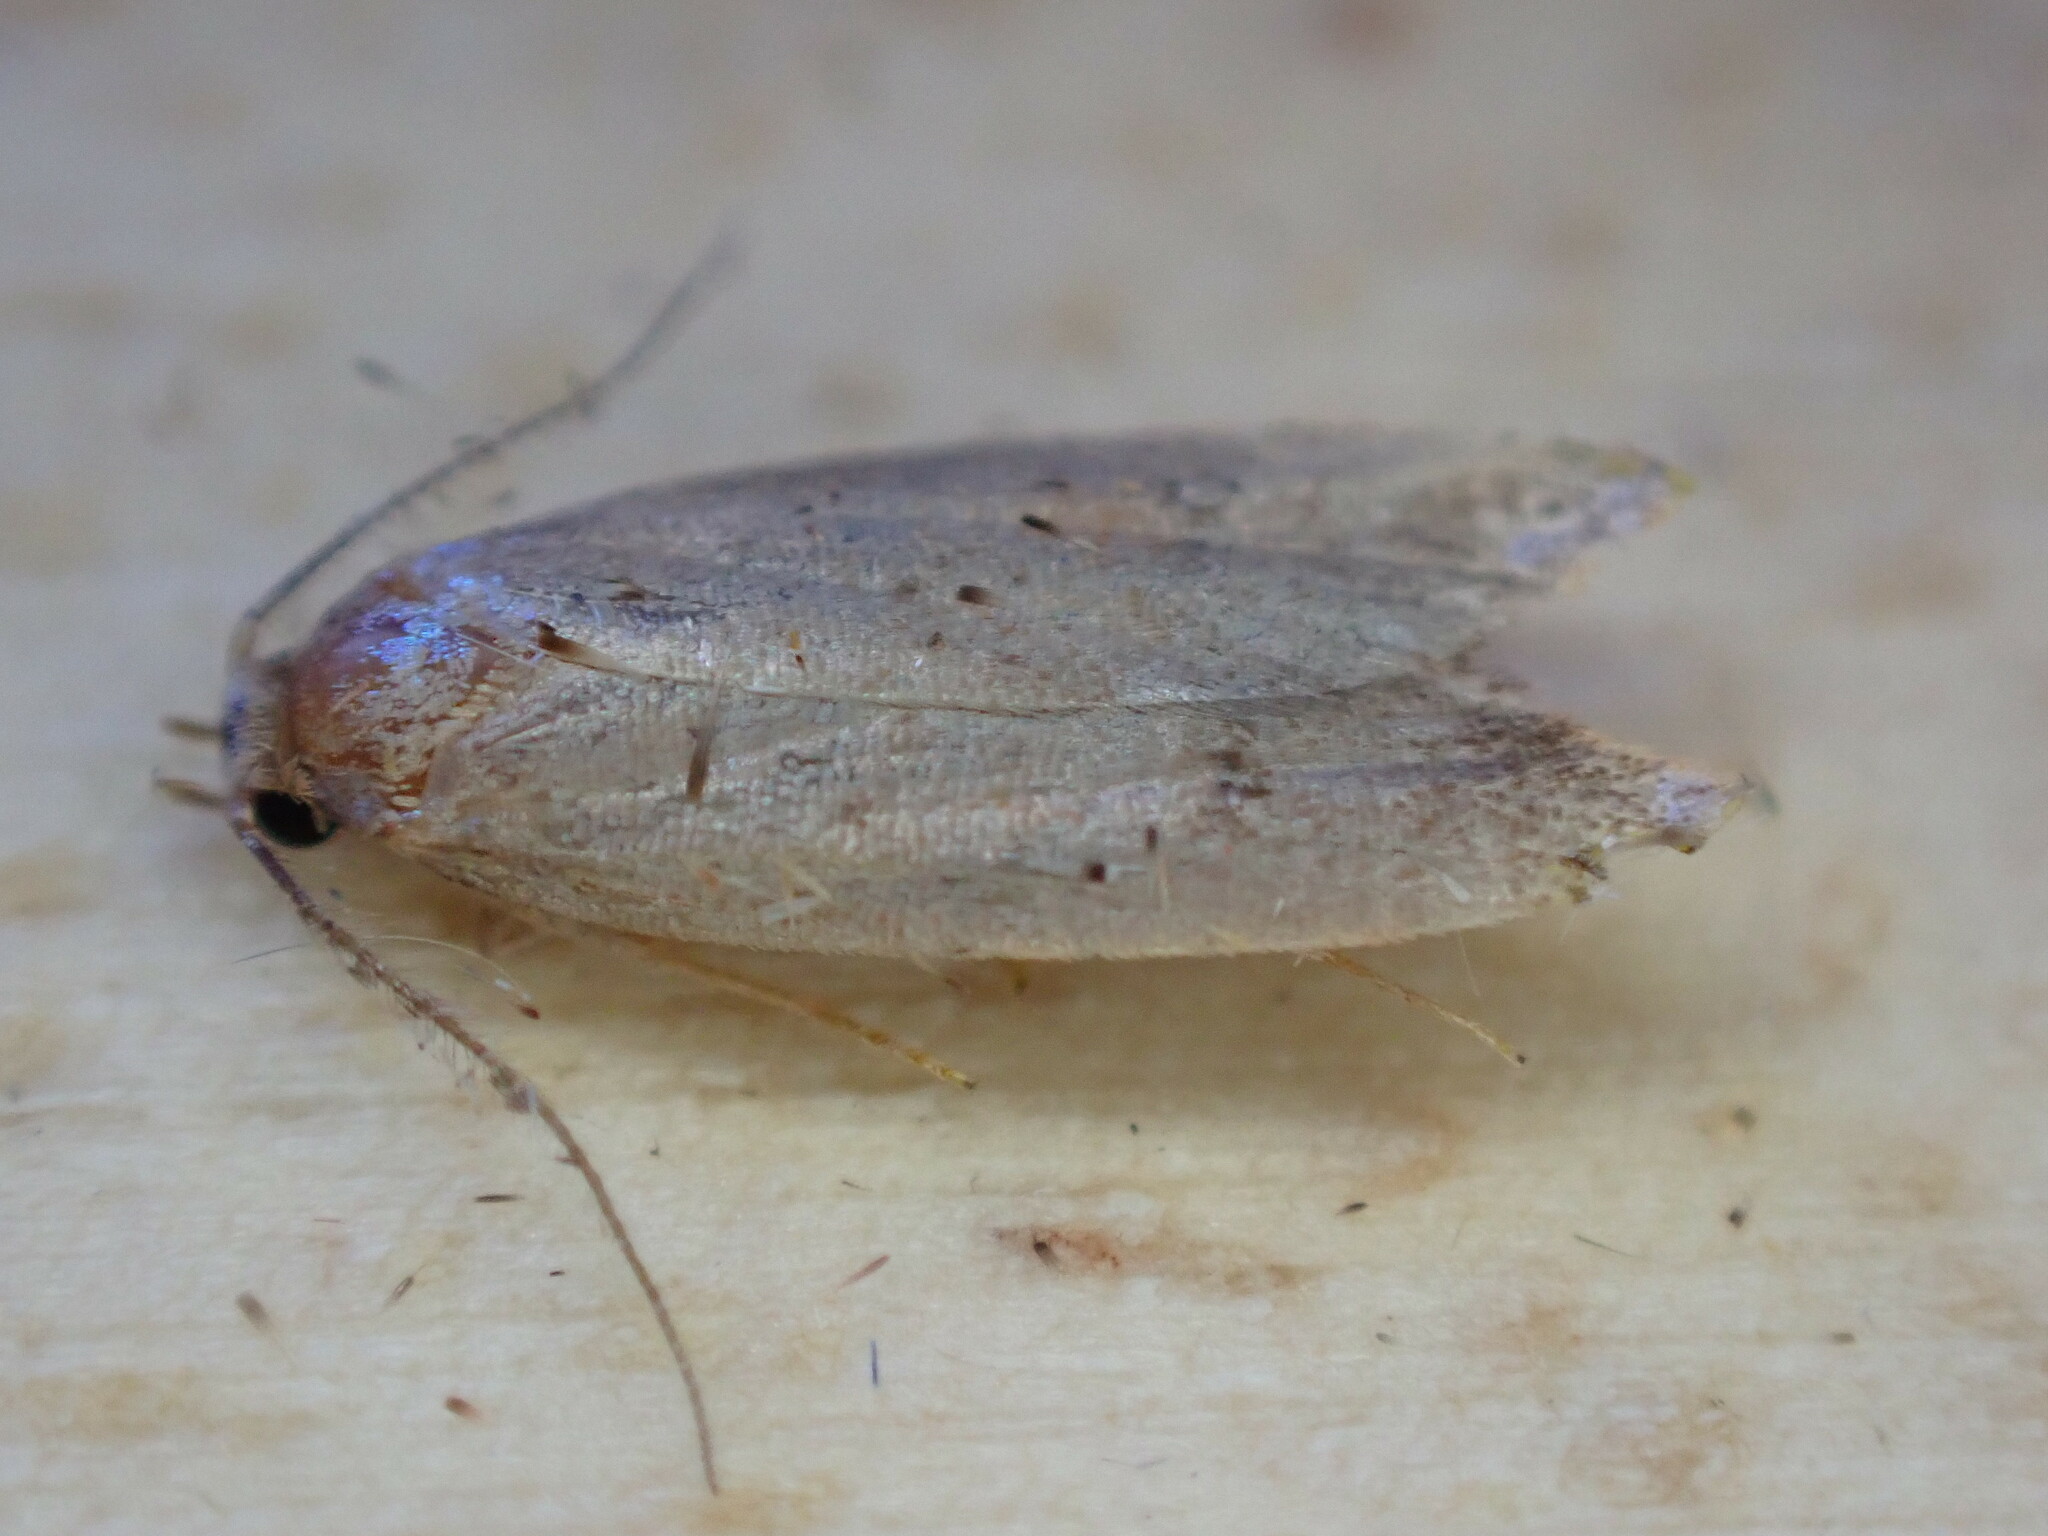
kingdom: Animalia
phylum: Arthropoda
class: Insecta
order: Lepidoptera
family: Oecophoridae
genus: Tachystola
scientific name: Tachystola acroxantha
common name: Ruddy streak
